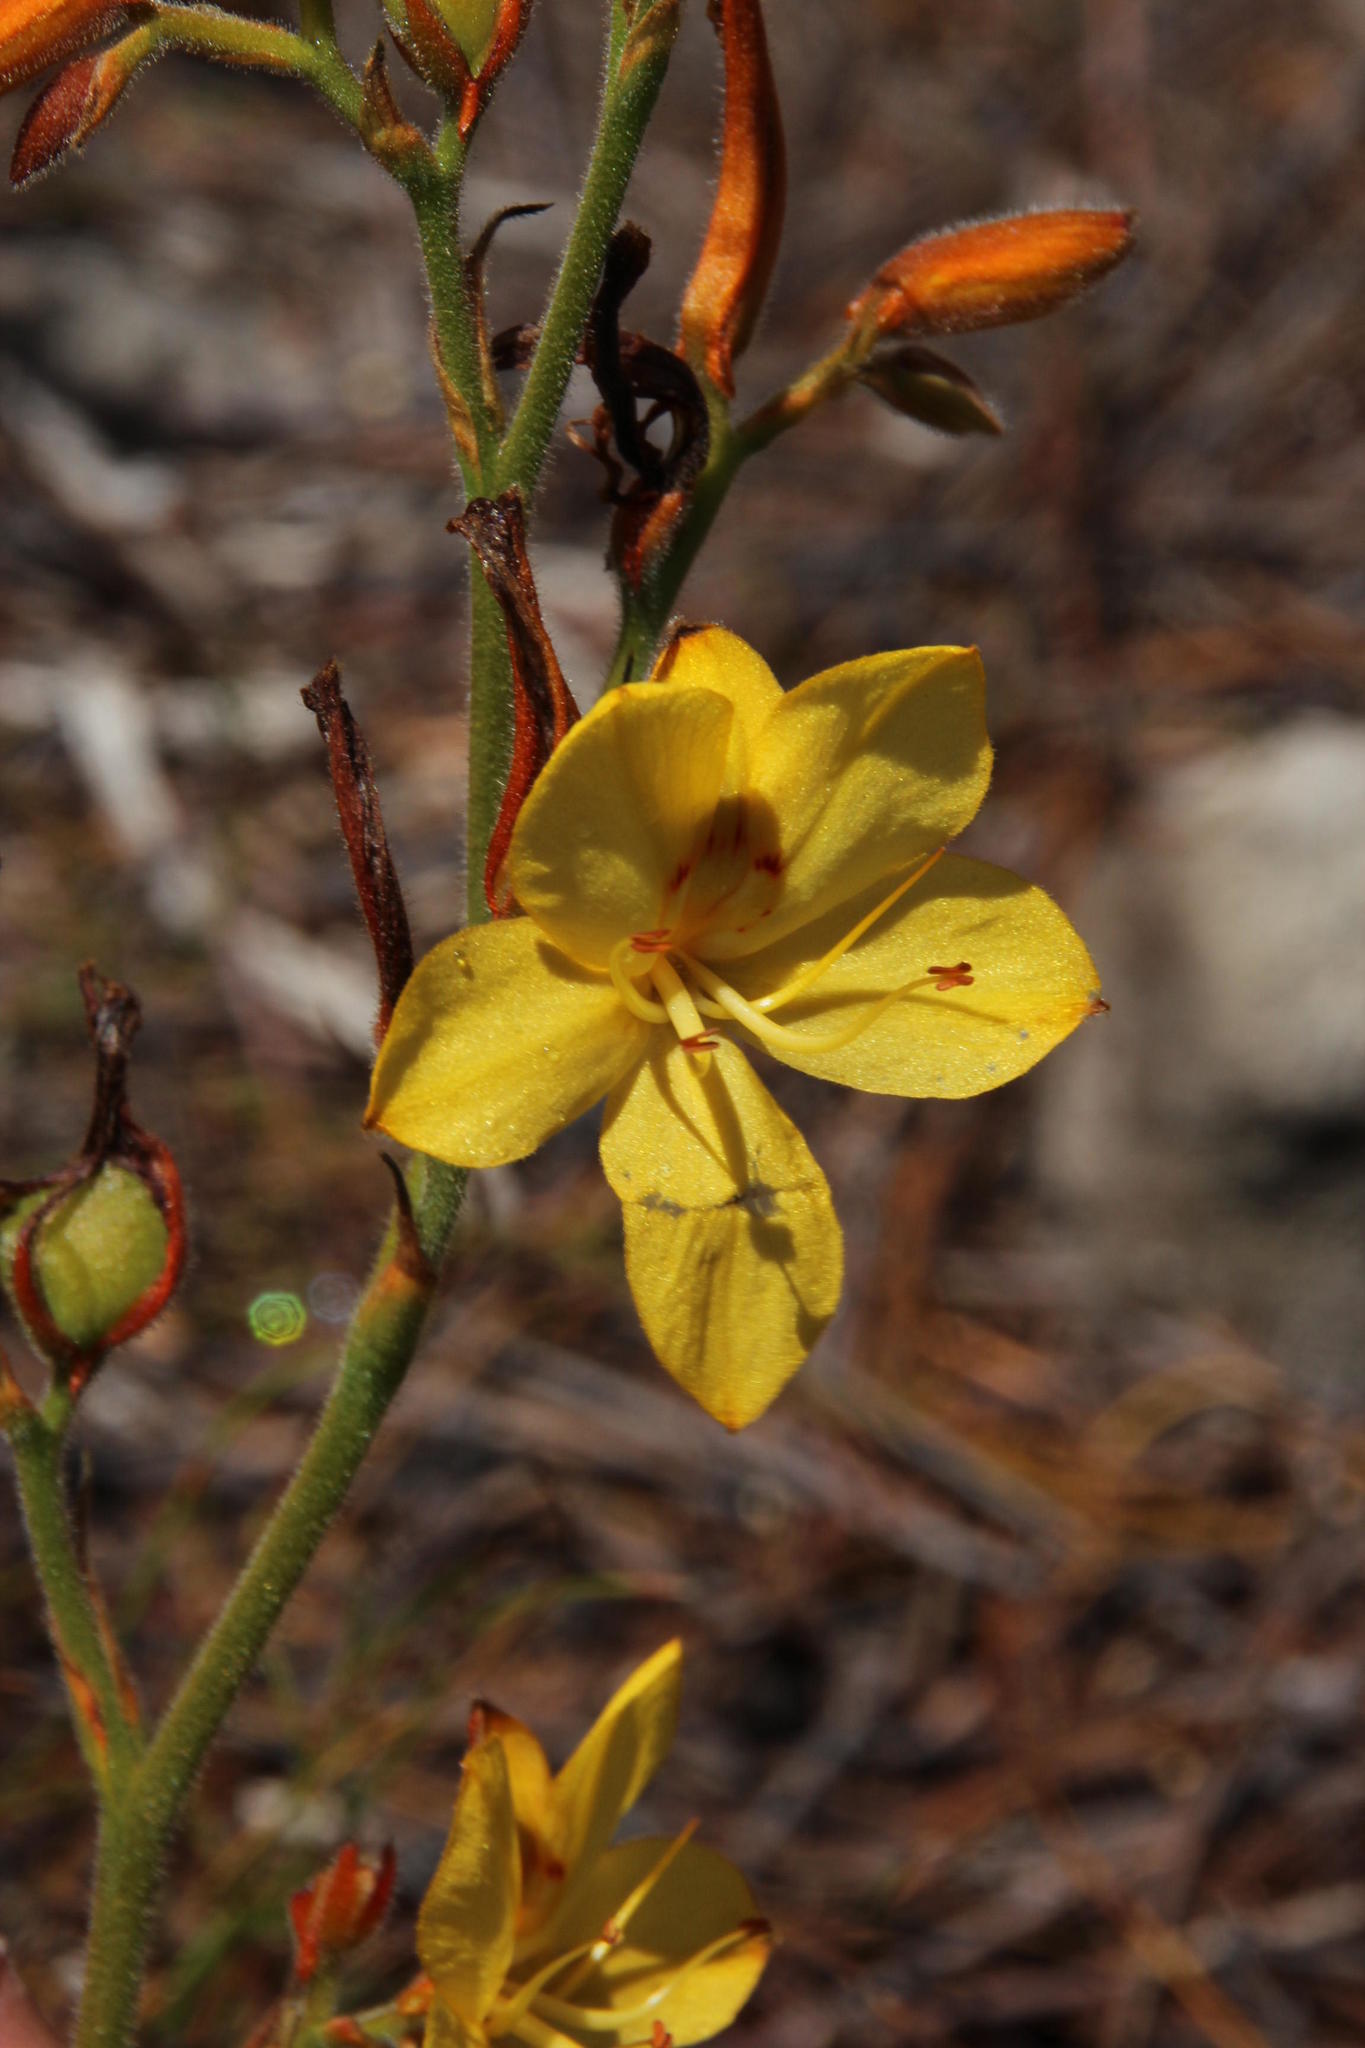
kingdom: Plantae
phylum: Tracheophyta
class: Liliopsida
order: Commelinales
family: Haemodoraceae
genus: Wachendorfia
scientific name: Wachendorfia paniculata
